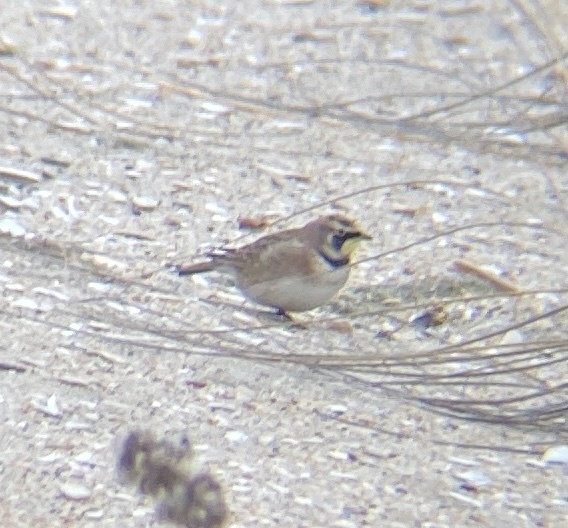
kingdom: Animalia
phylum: Chordata
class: Aves
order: Passeriformes
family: Alaudidae
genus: Eremophila
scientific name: Eremophila alpestris
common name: Horned lark
